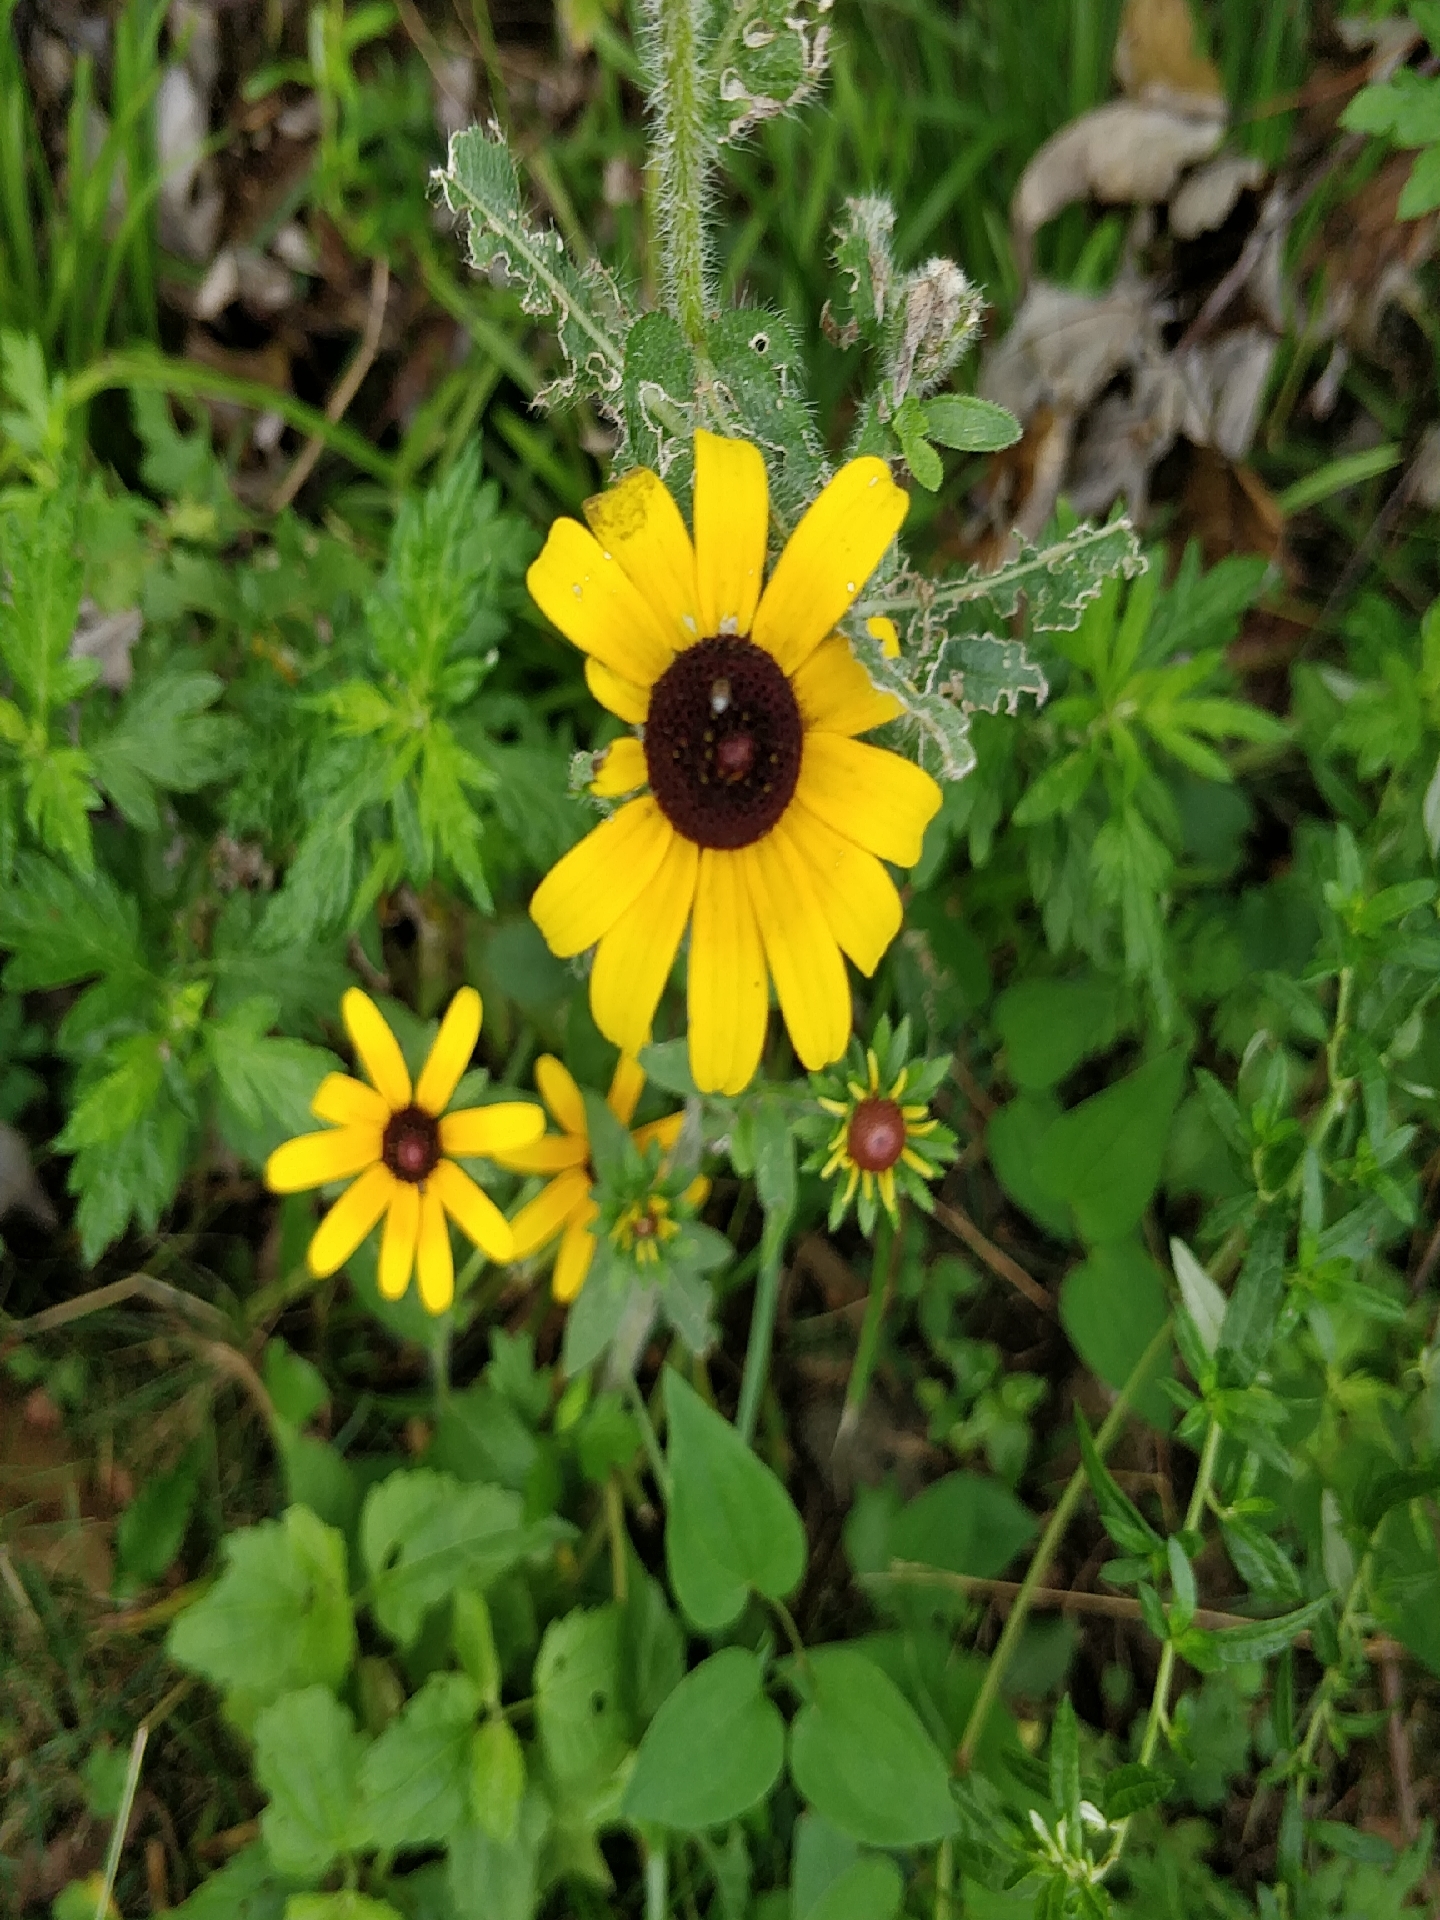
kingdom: Plantae
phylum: Tracheophyta
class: Magnoliopsida
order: Asterales
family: Asteraceae
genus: Rudbeckia
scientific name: Rudbeckia hirta
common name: Black-eyed-susan
